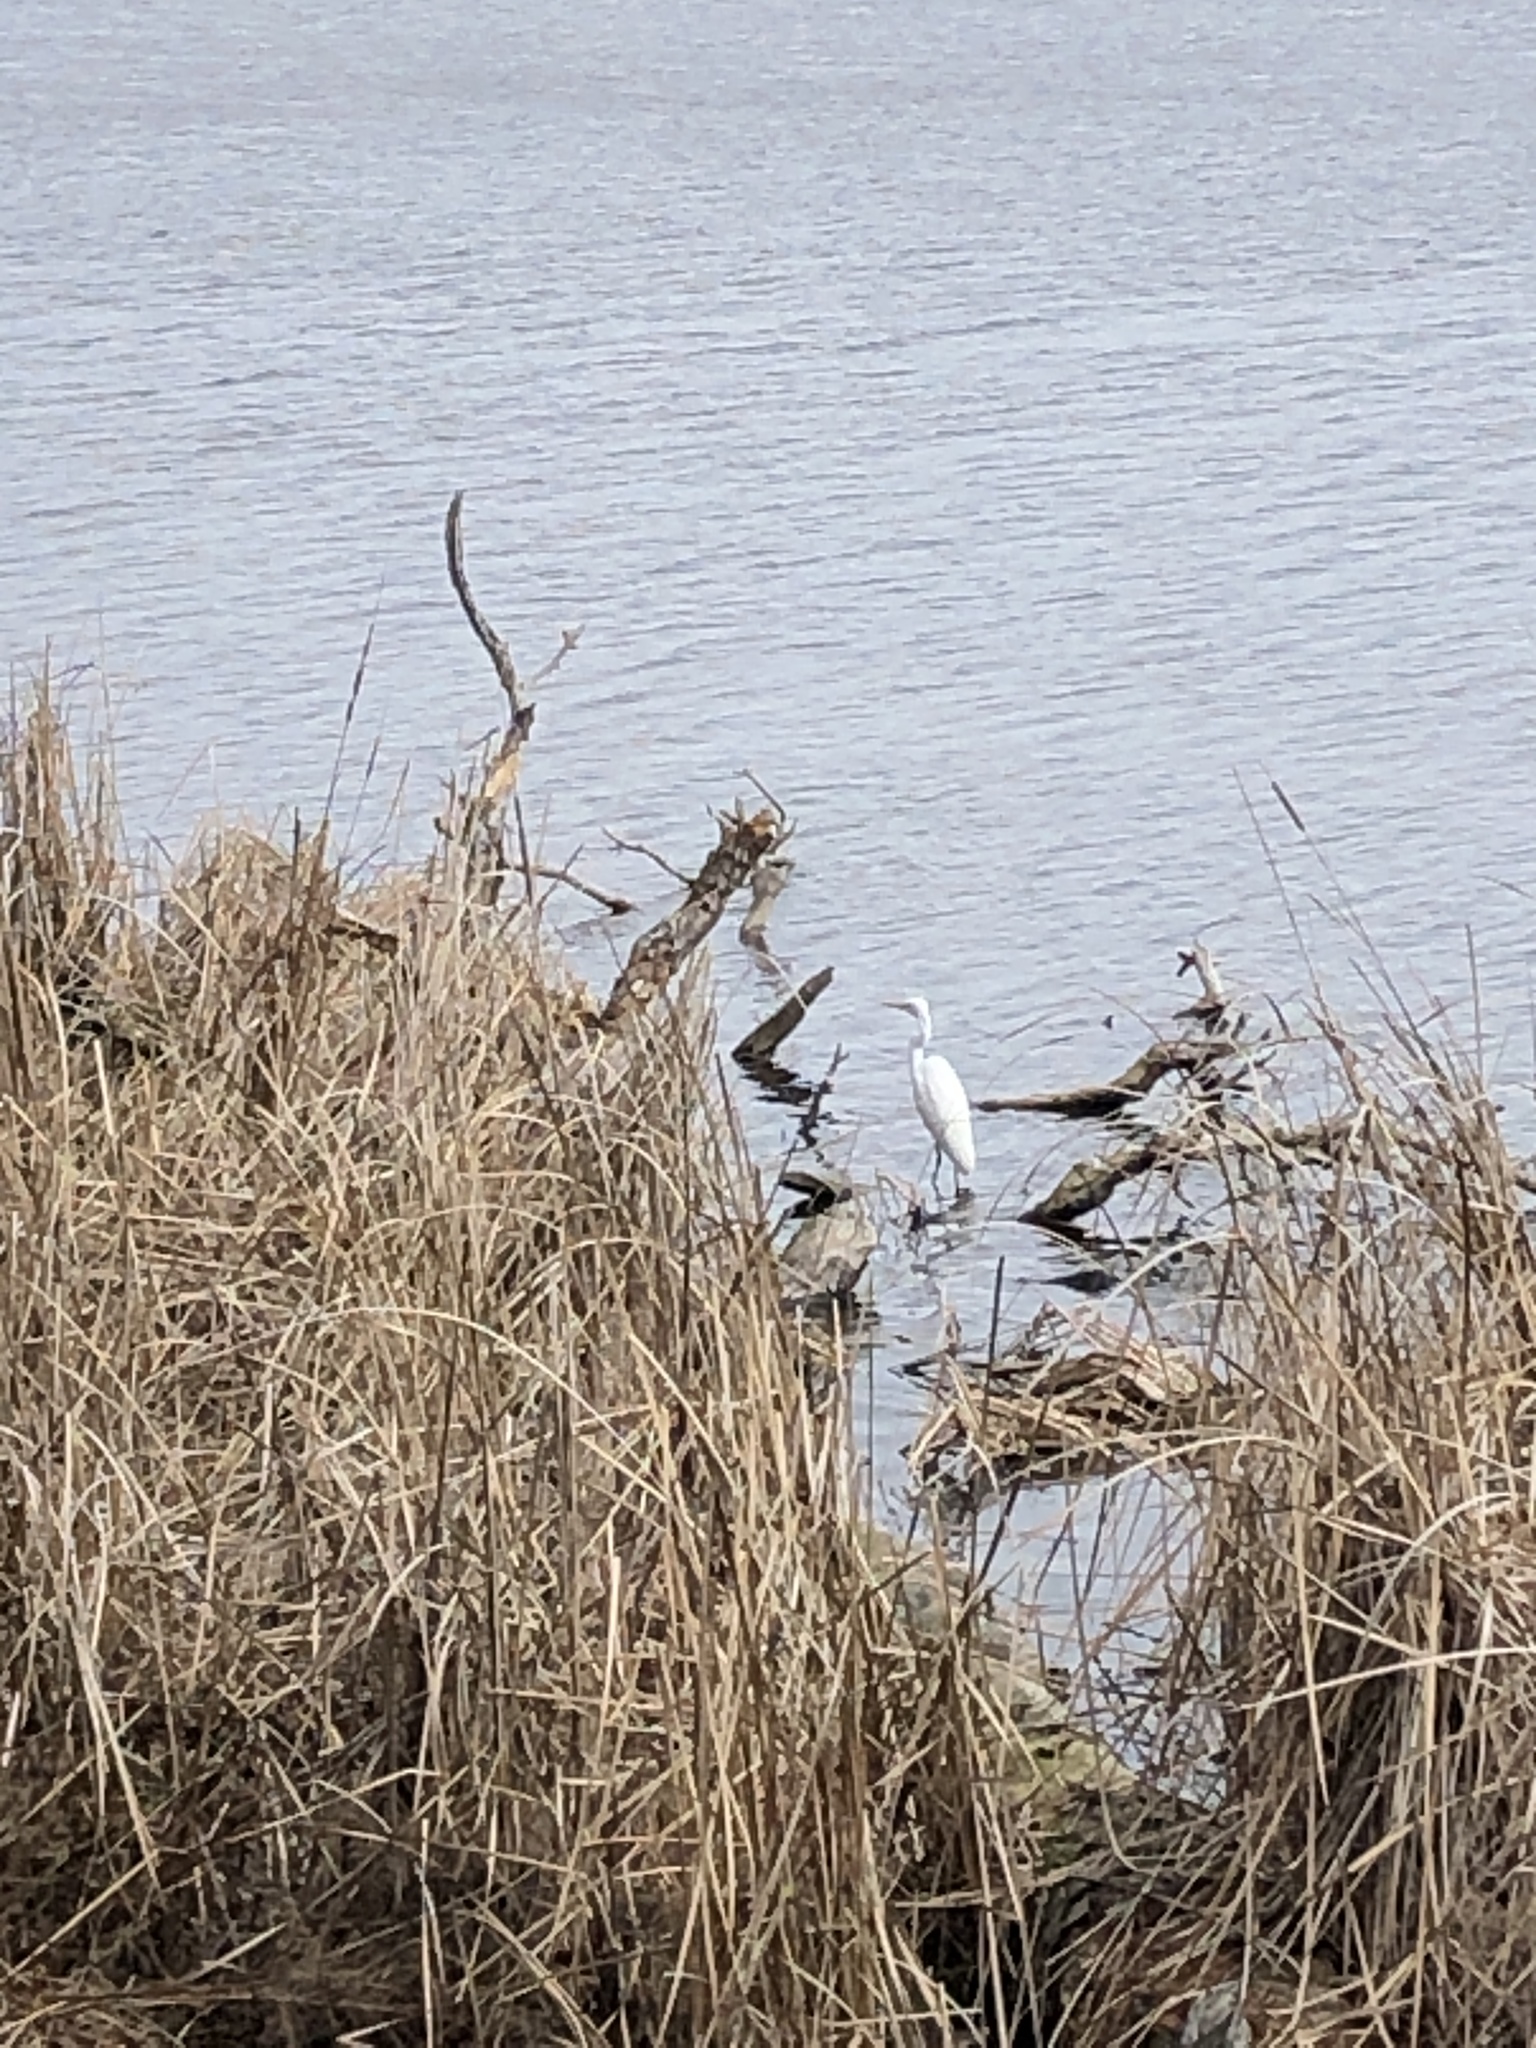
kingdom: Animalia
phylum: Chordata
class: Aves
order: Pelecaniformes
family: Ardeidae
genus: Ardea
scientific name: Ardea alba
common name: Great egret
